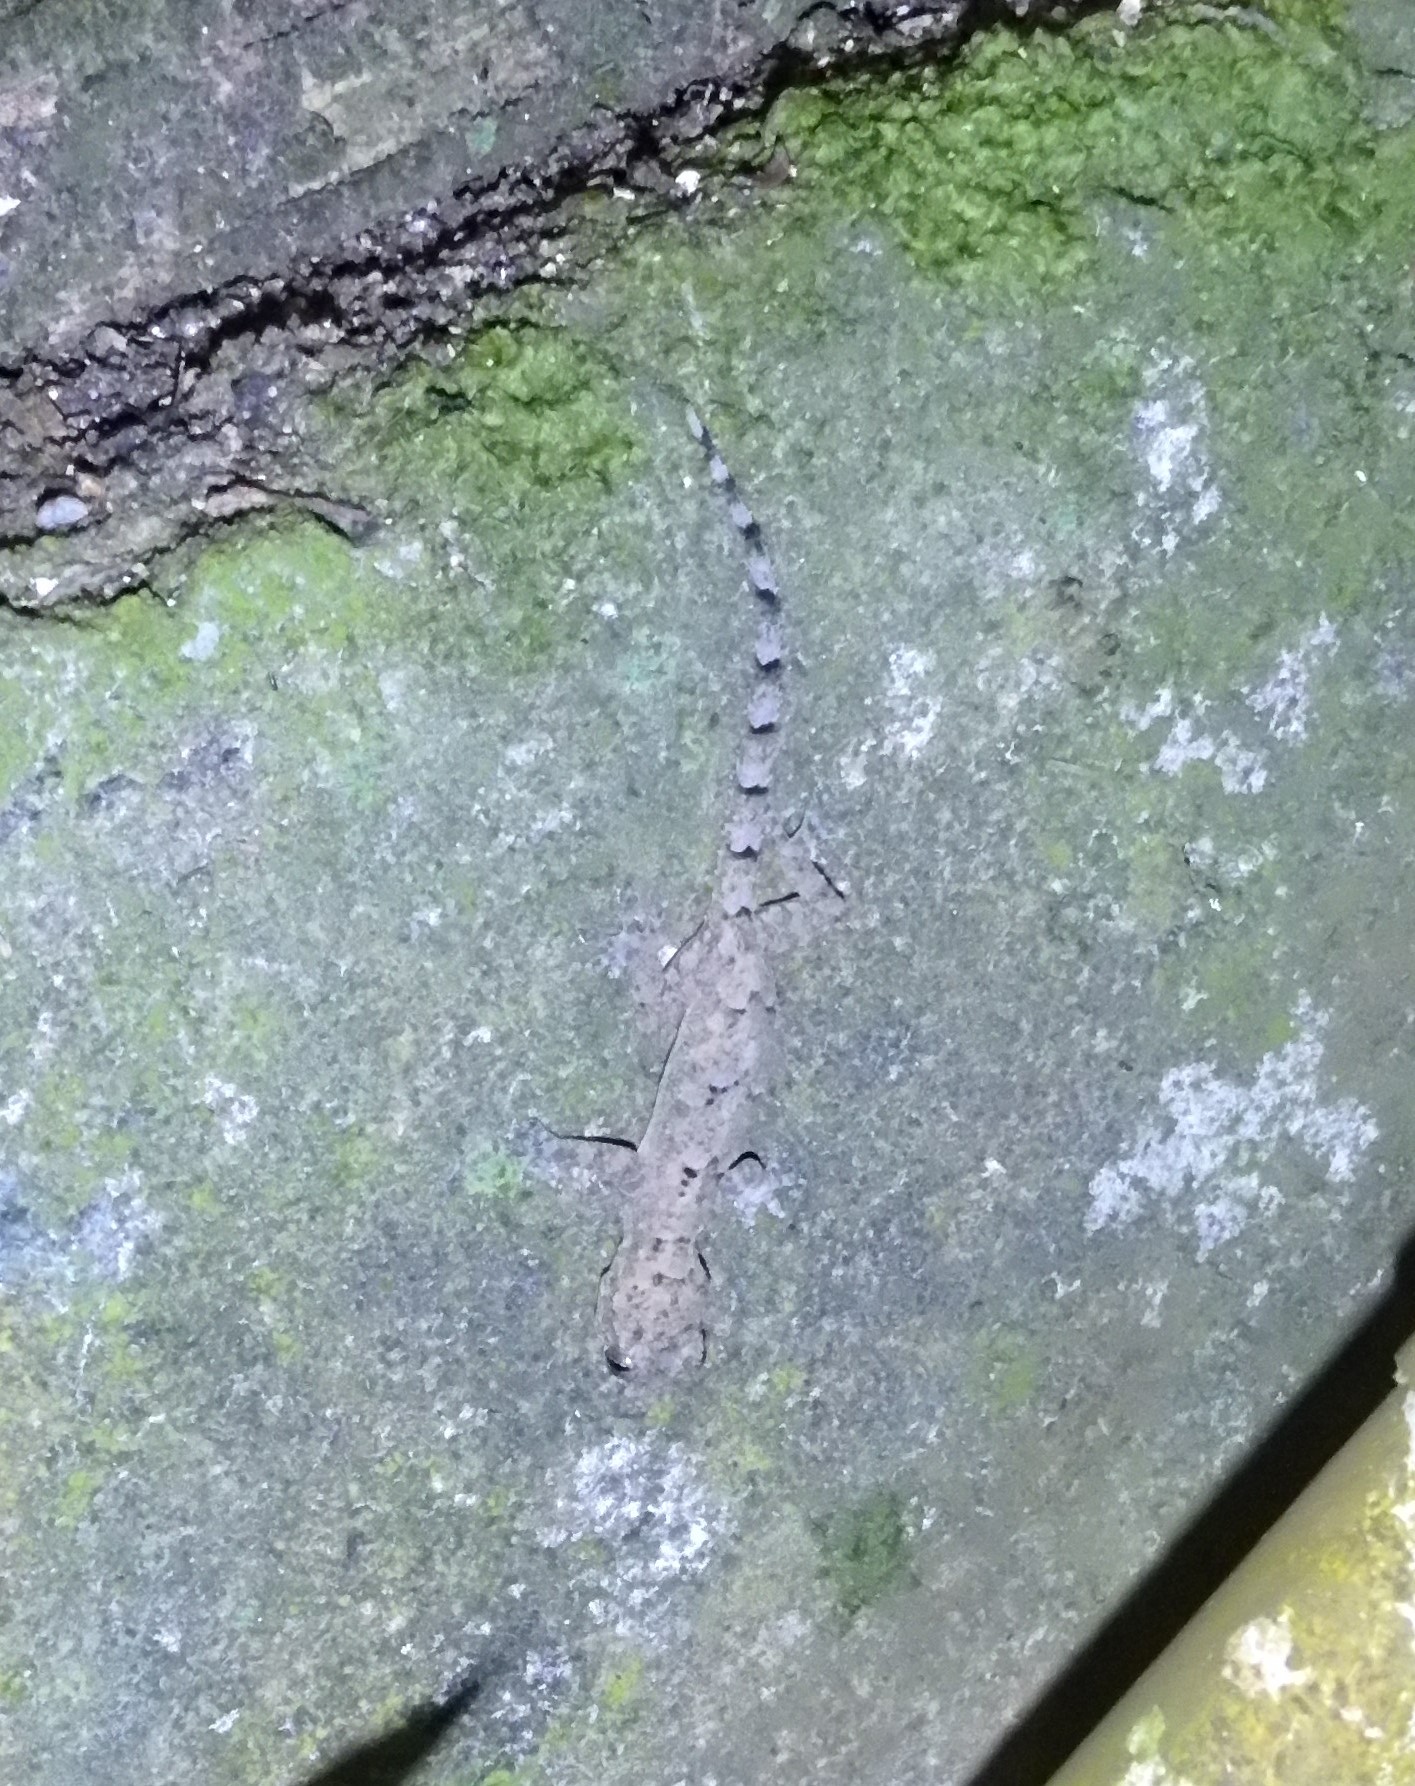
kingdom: Animalia
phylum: Chordata
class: Squamata
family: Gekkonidae
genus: Hemidactylus
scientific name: Hemidactylus mabouia
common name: House gecko
